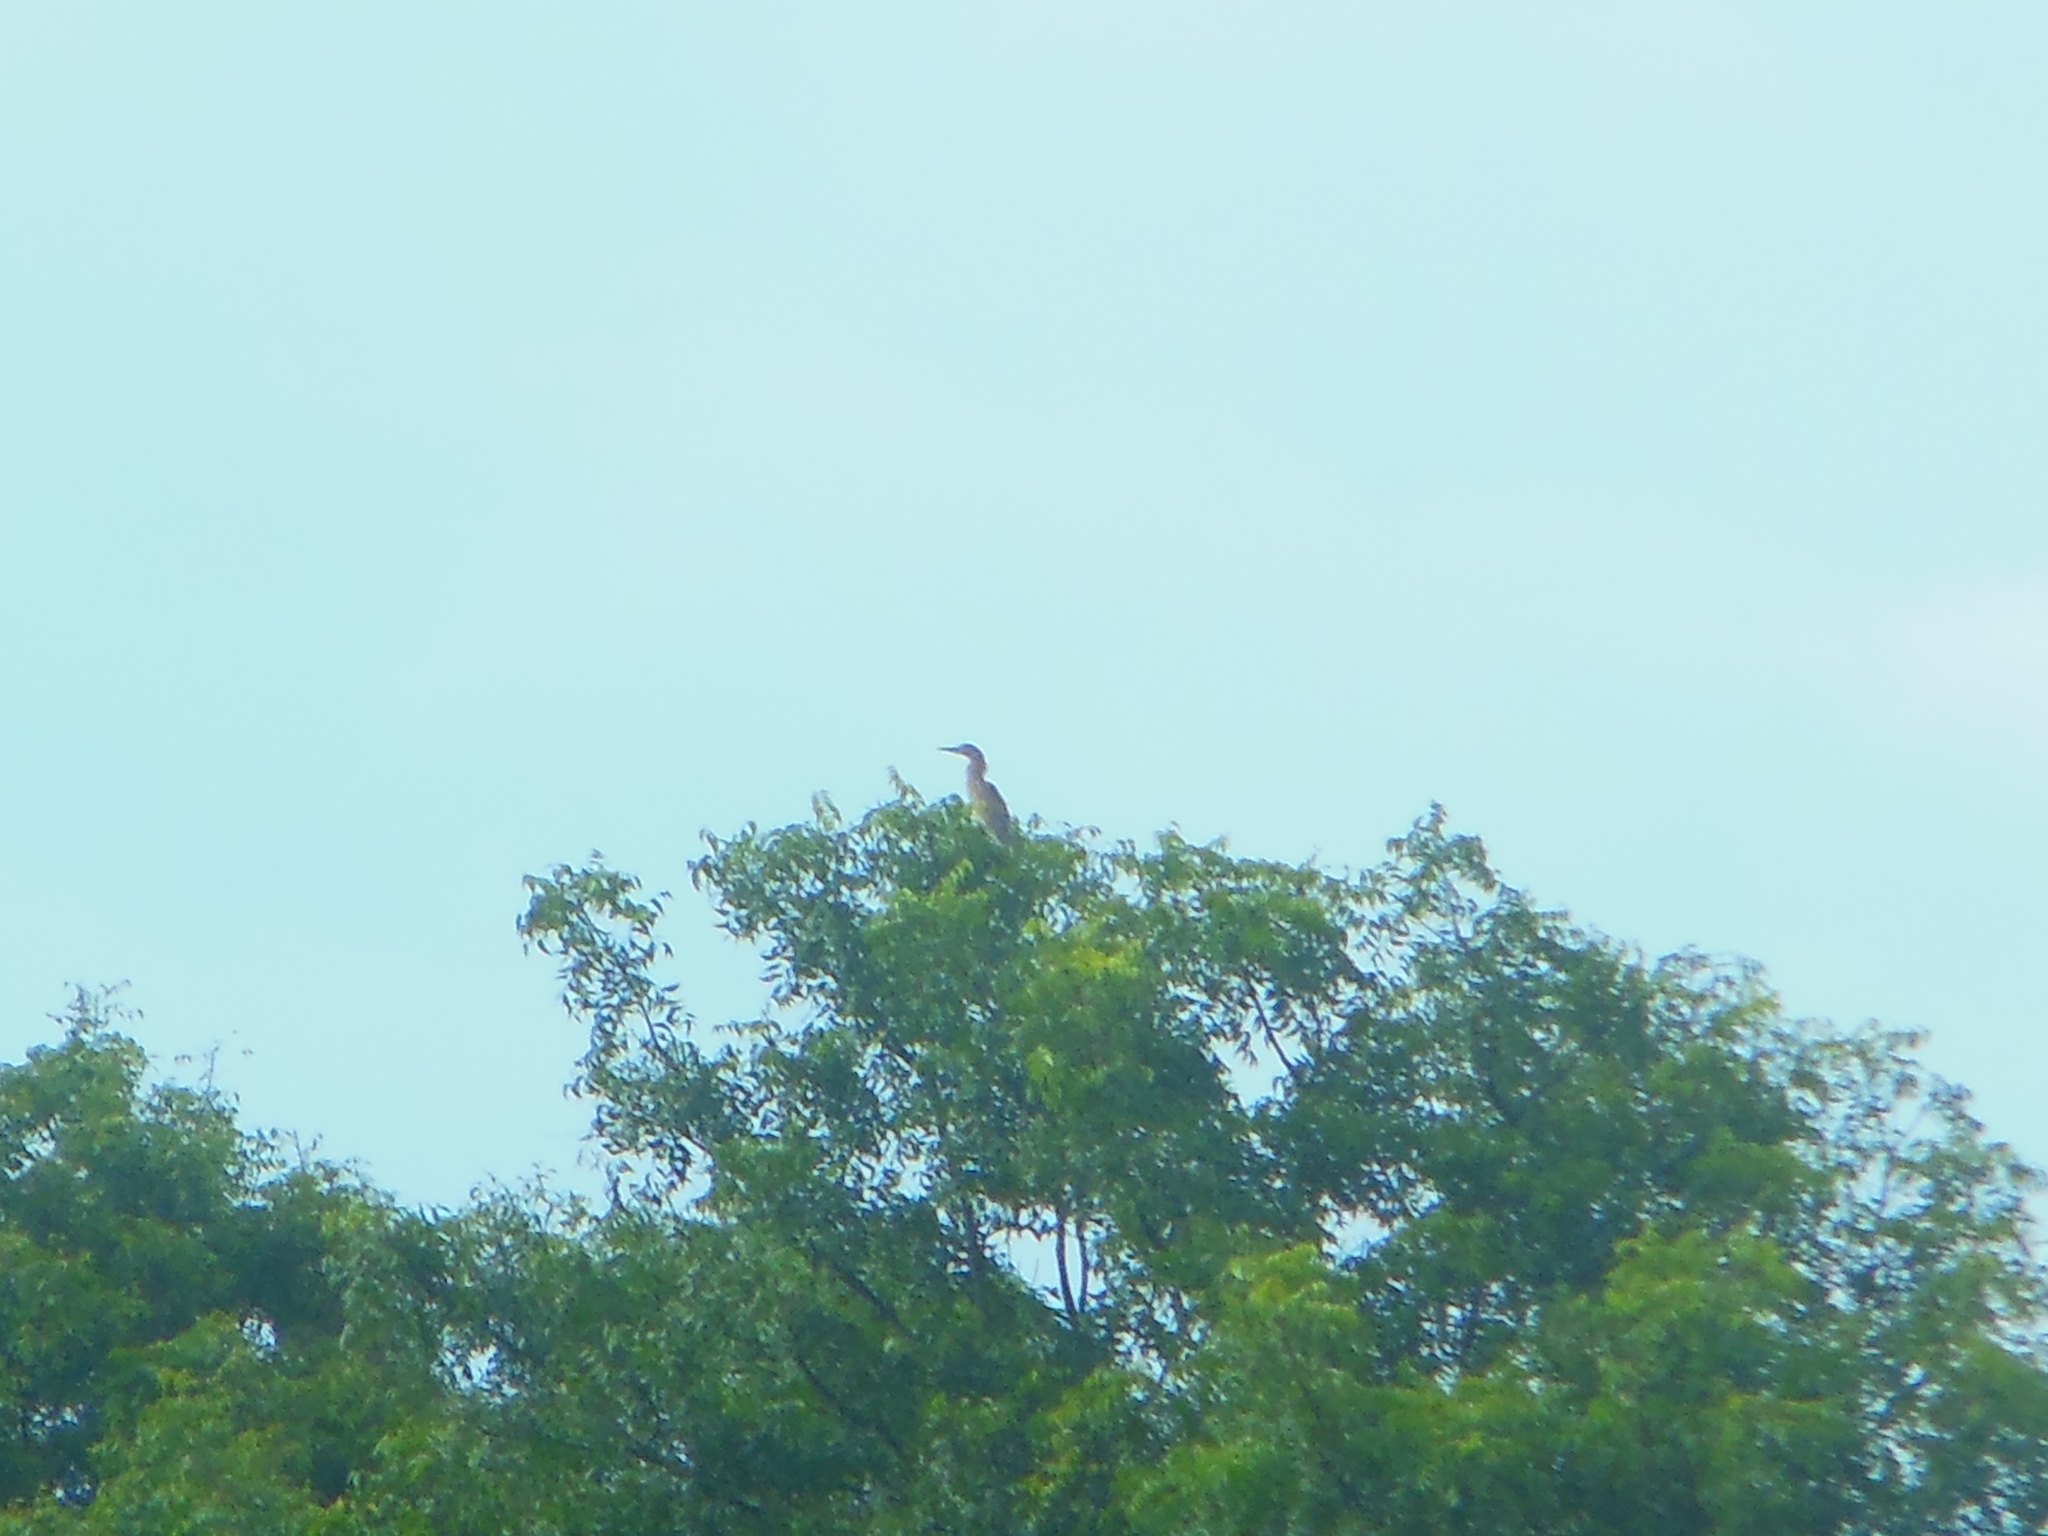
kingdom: Animalia
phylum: Chordata
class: Aves
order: Pelecaniformes
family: Ardeidae
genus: Ardeola
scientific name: Ardeola grayii
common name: Indian pond heron
